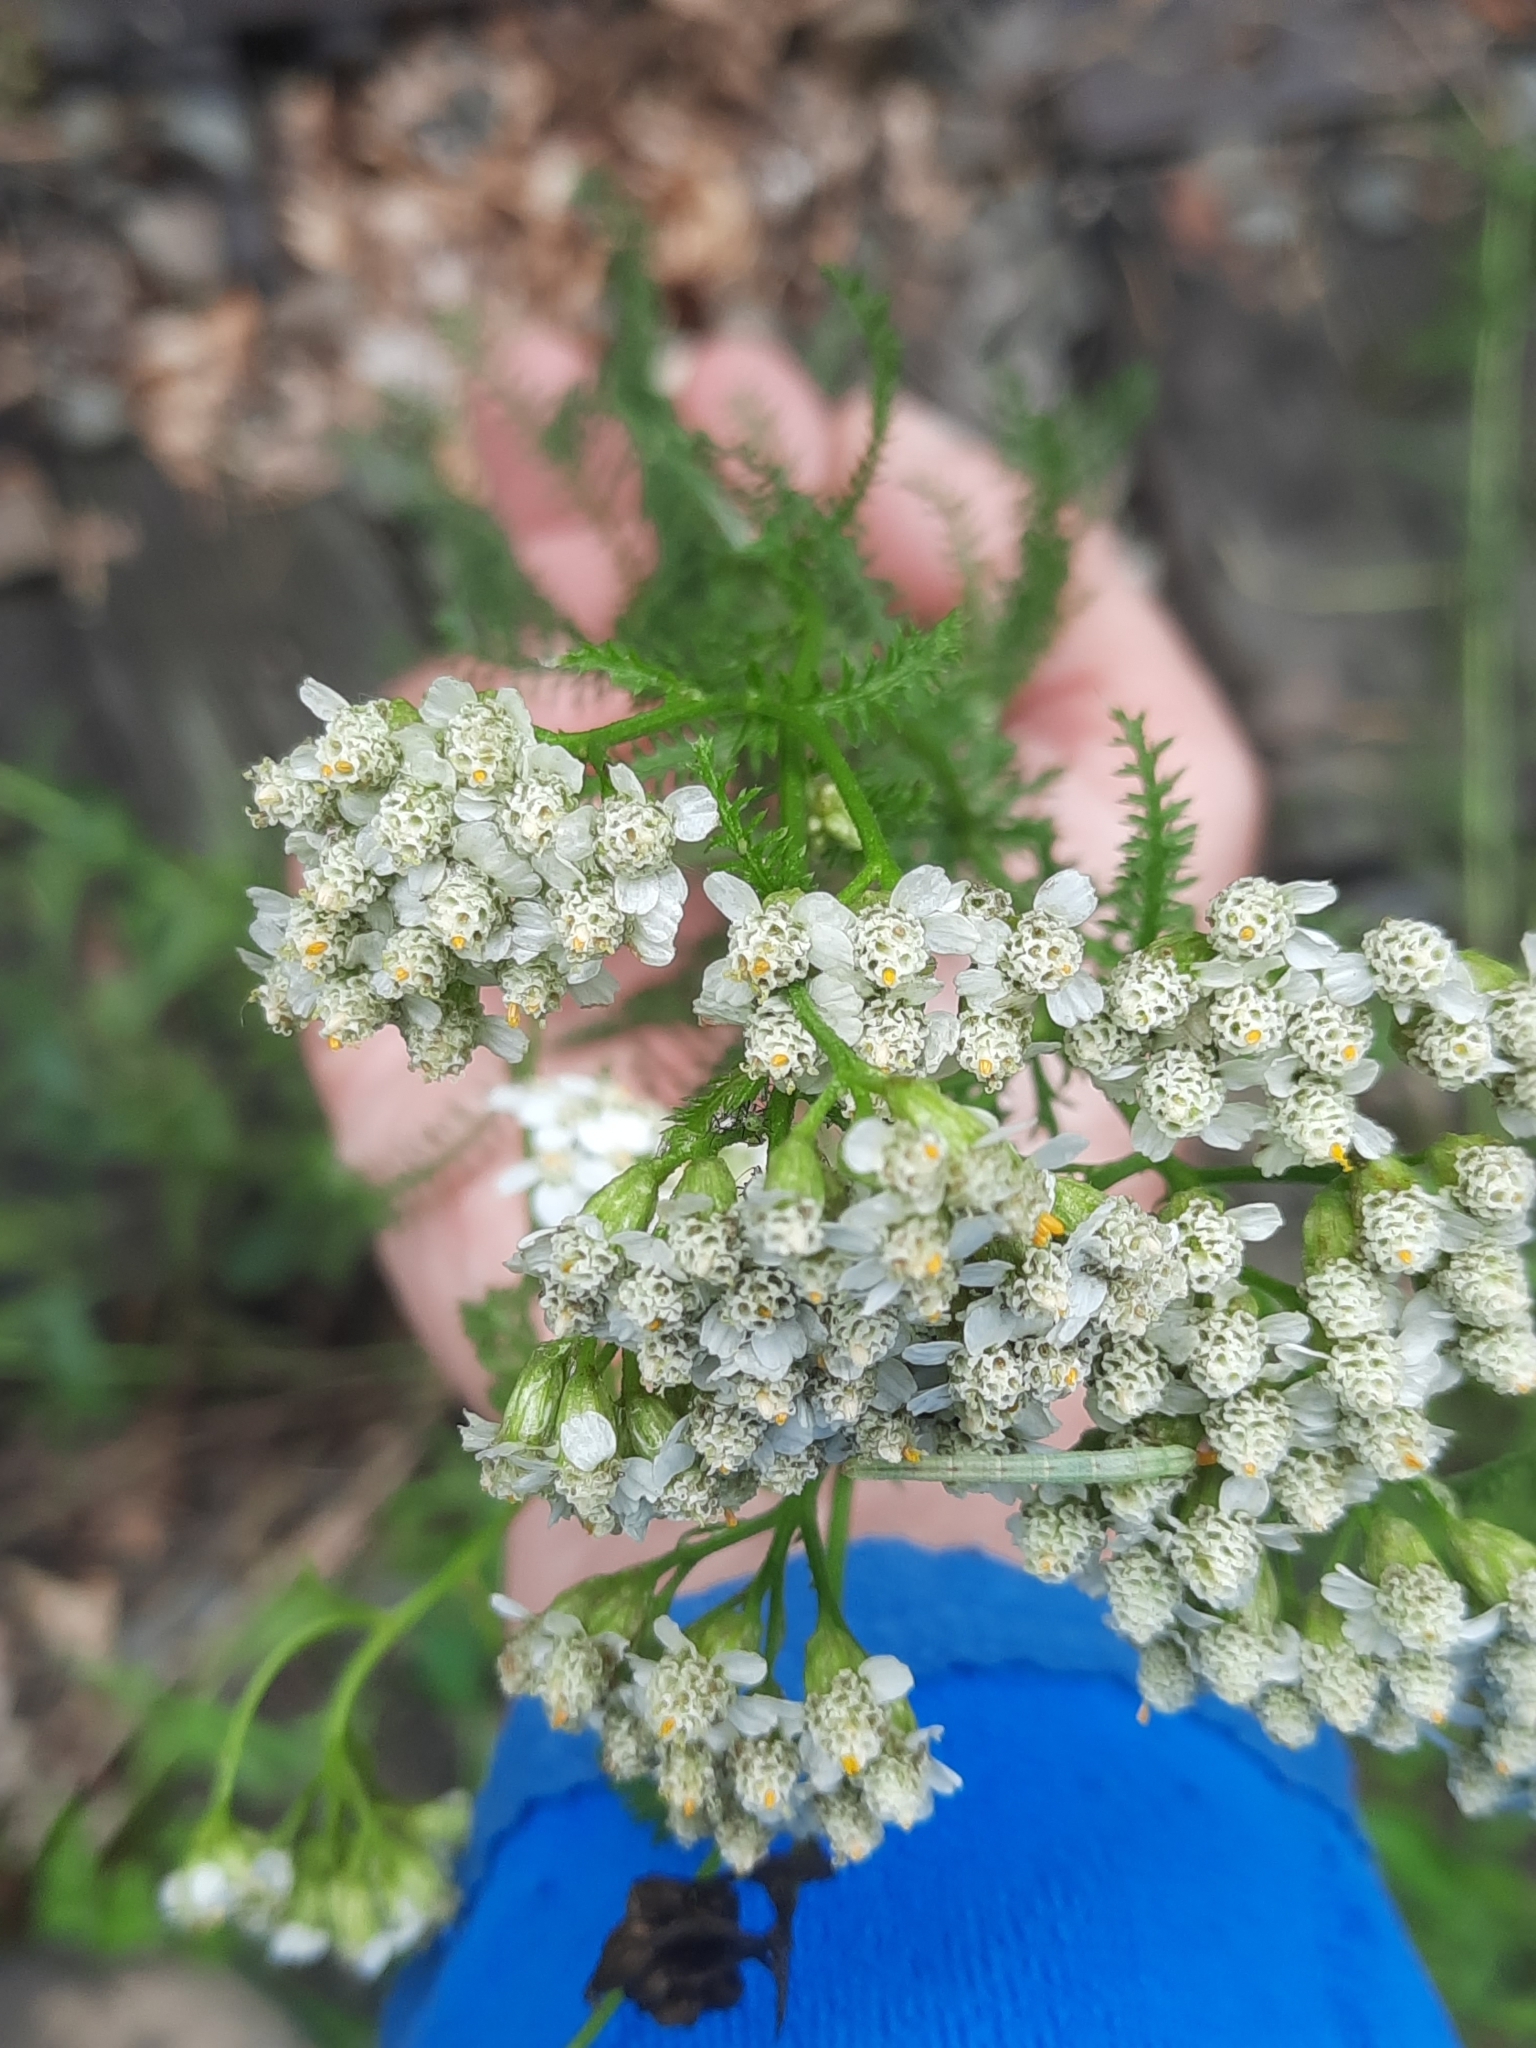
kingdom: Plantae
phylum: Tracheophyta
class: Magnoliopsida
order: Asterales
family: Asteraceae
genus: Achillea
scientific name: Achillea millefolium
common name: Yarrow
